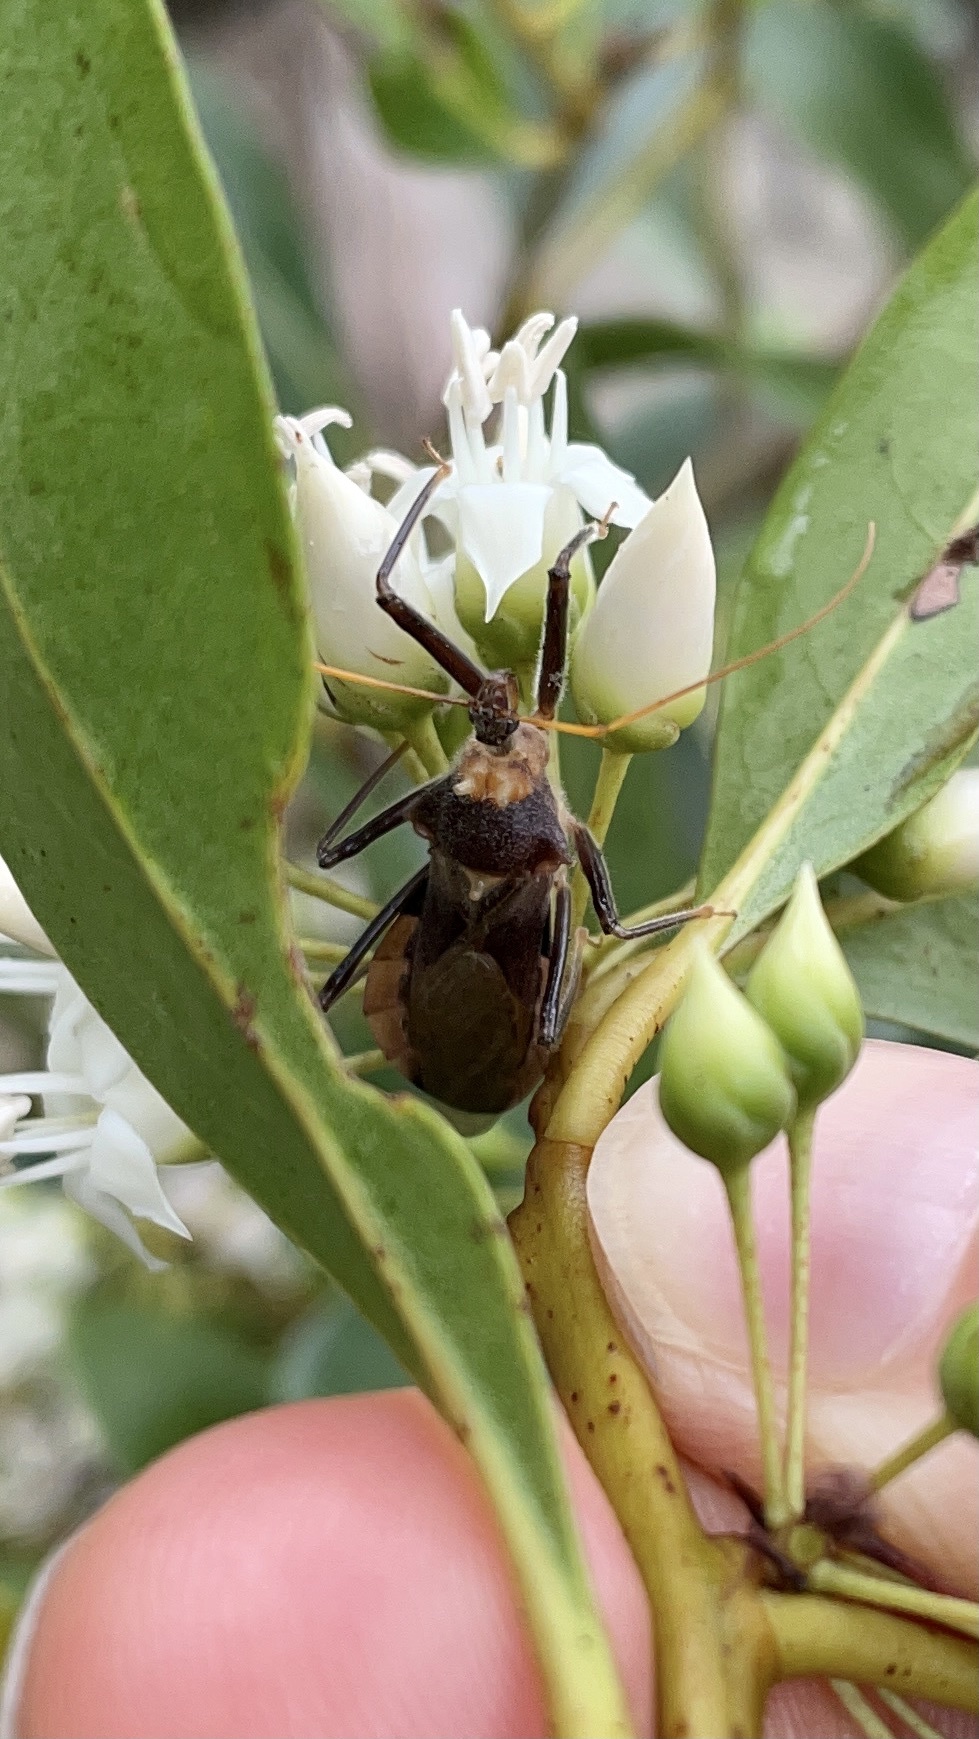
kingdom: Animalia
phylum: Arthropoda
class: Insecta
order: Hemiptera
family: Reduviidae
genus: Pristhesancus
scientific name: Pristhesancus grassator
